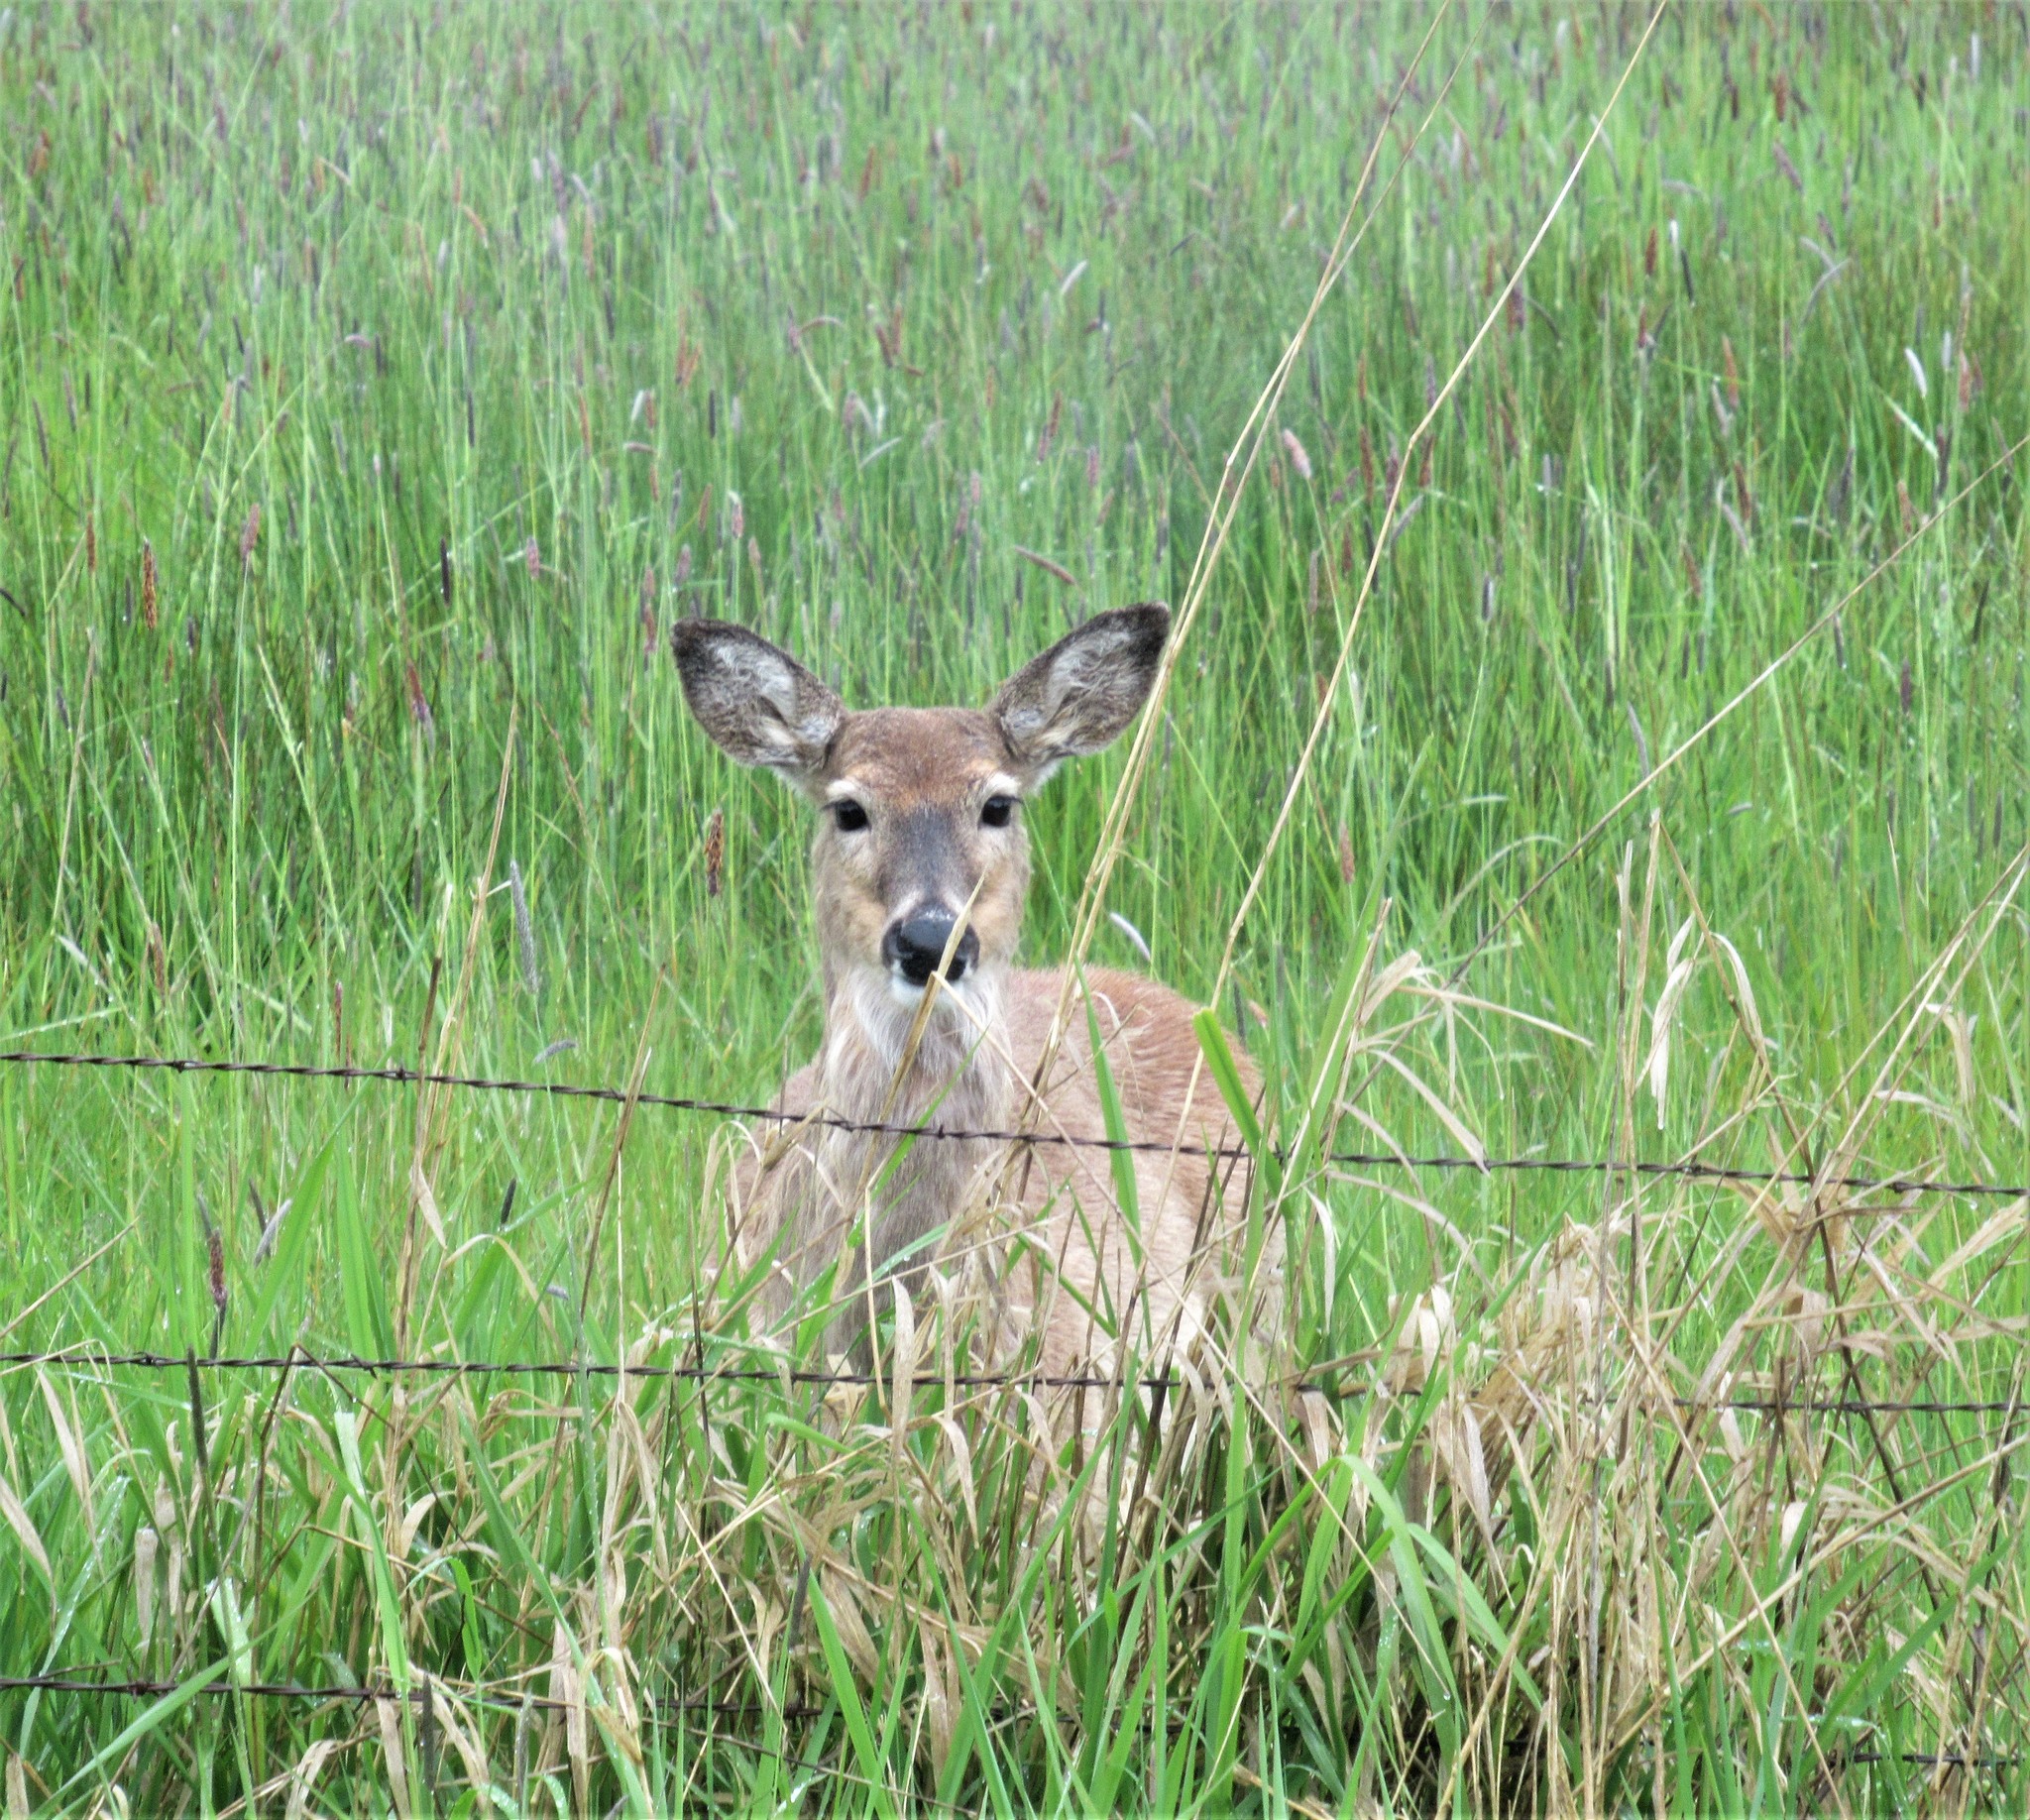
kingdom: Animalia
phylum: Chordata
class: Mammalia
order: Artiodactyla
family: Cervidae
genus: Odocoileus
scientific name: Odocoileus virginianus
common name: White-tailed deer
